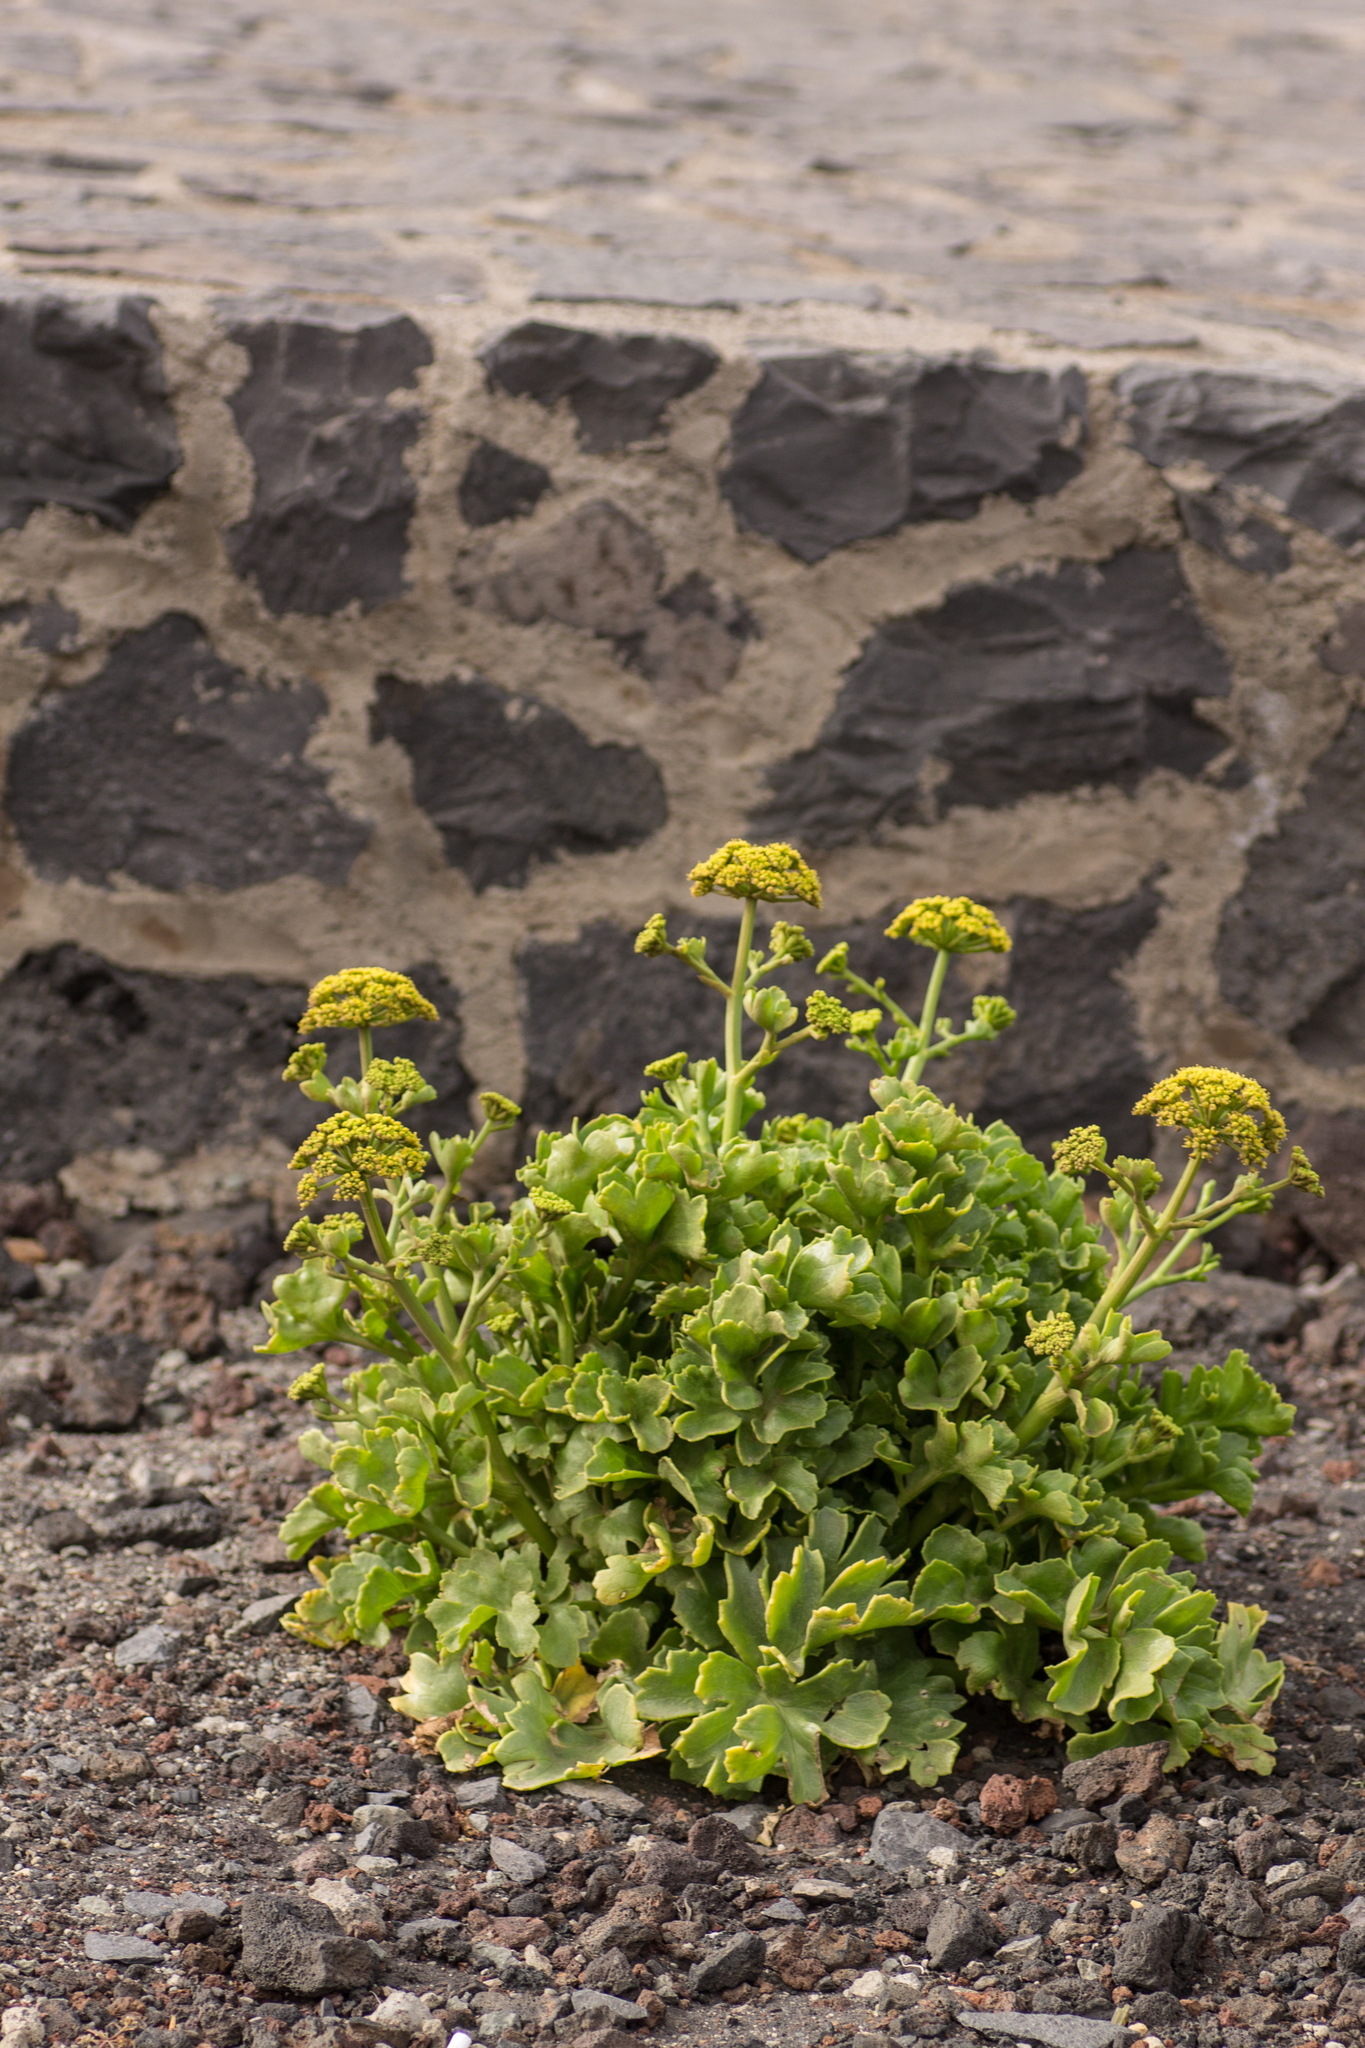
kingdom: Plantae
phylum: Tracheophyta
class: Magnoliopsida
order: Apiales
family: Apiaceae
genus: Astydamia
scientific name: Astydamia latifolia
